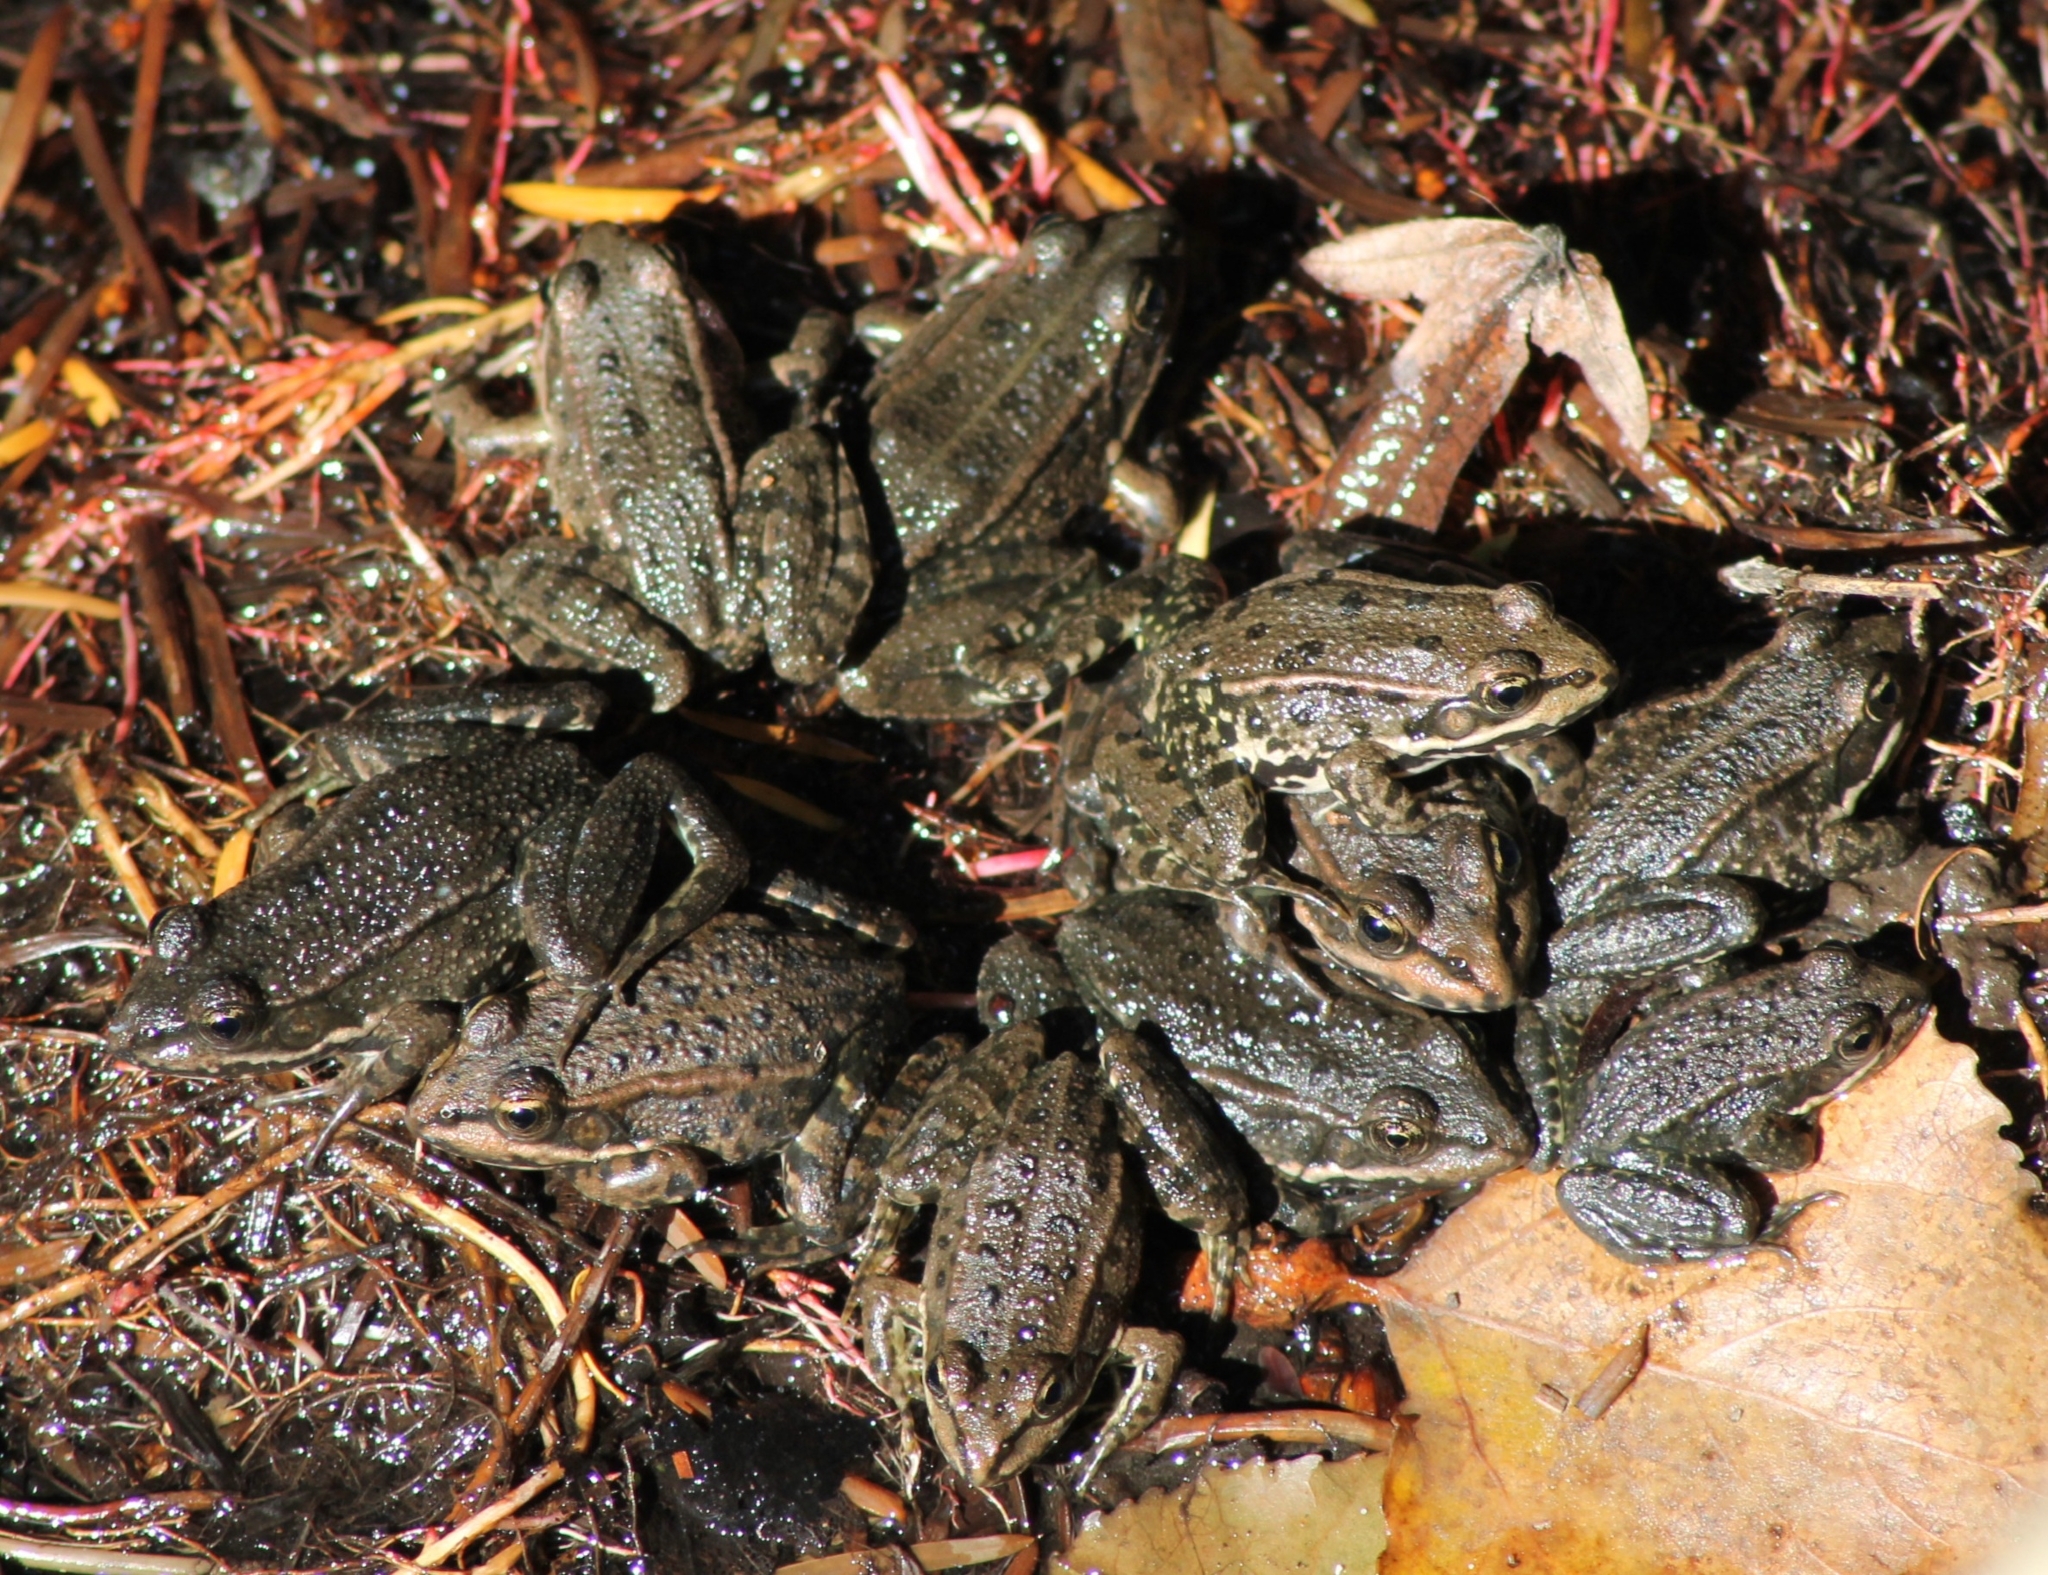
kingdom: Animalia
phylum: Chordata
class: Amphibia
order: Anura
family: Ranidae
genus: Pelophylax
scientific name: Pelophylax
